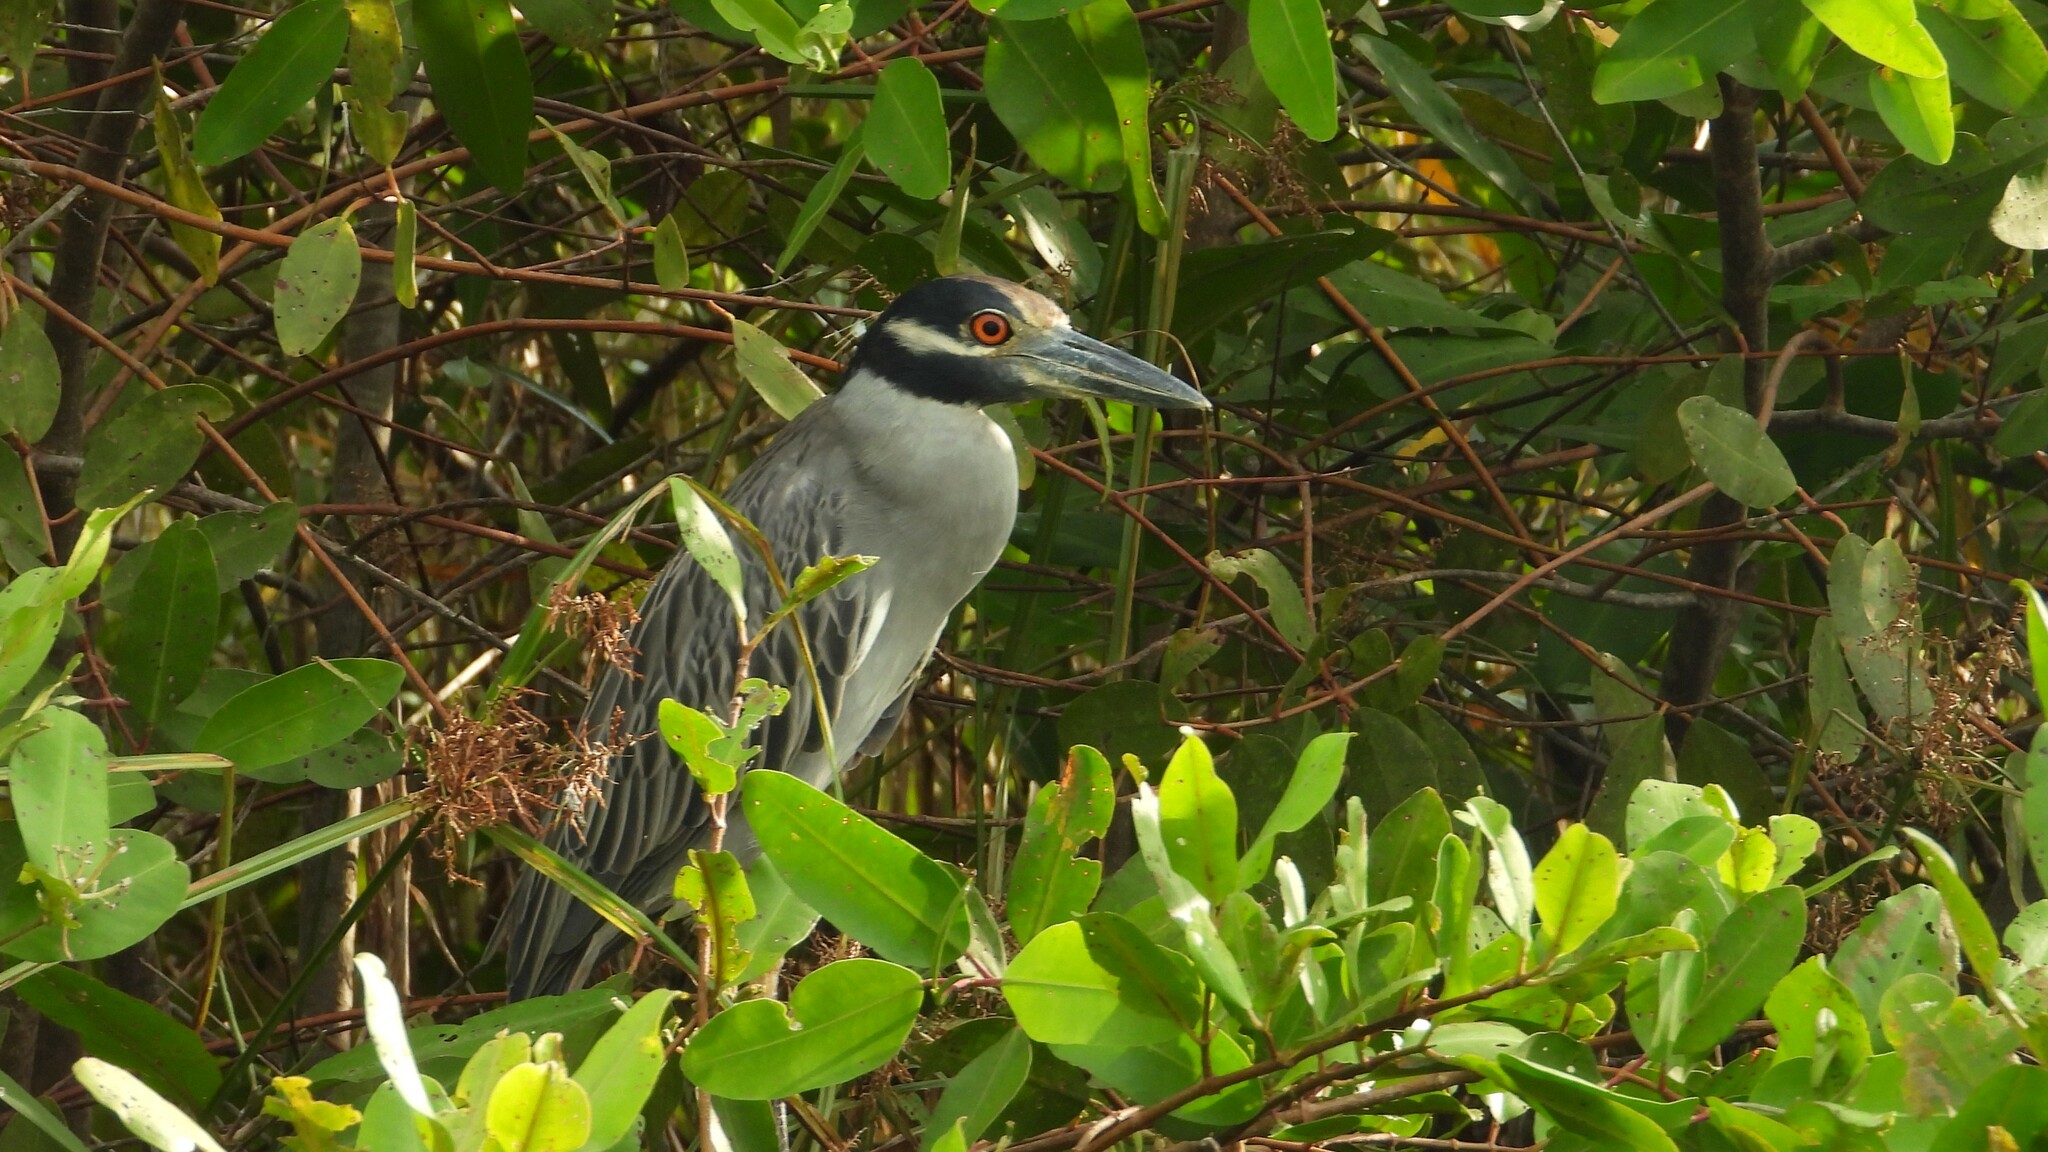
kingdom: Animalia
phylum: Chordata
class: Aves
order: Pelecaniformes
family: Ardeidae
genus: Nyctanassa
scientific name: Nyctanassa violacea
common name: Yellow-crowned night heron
